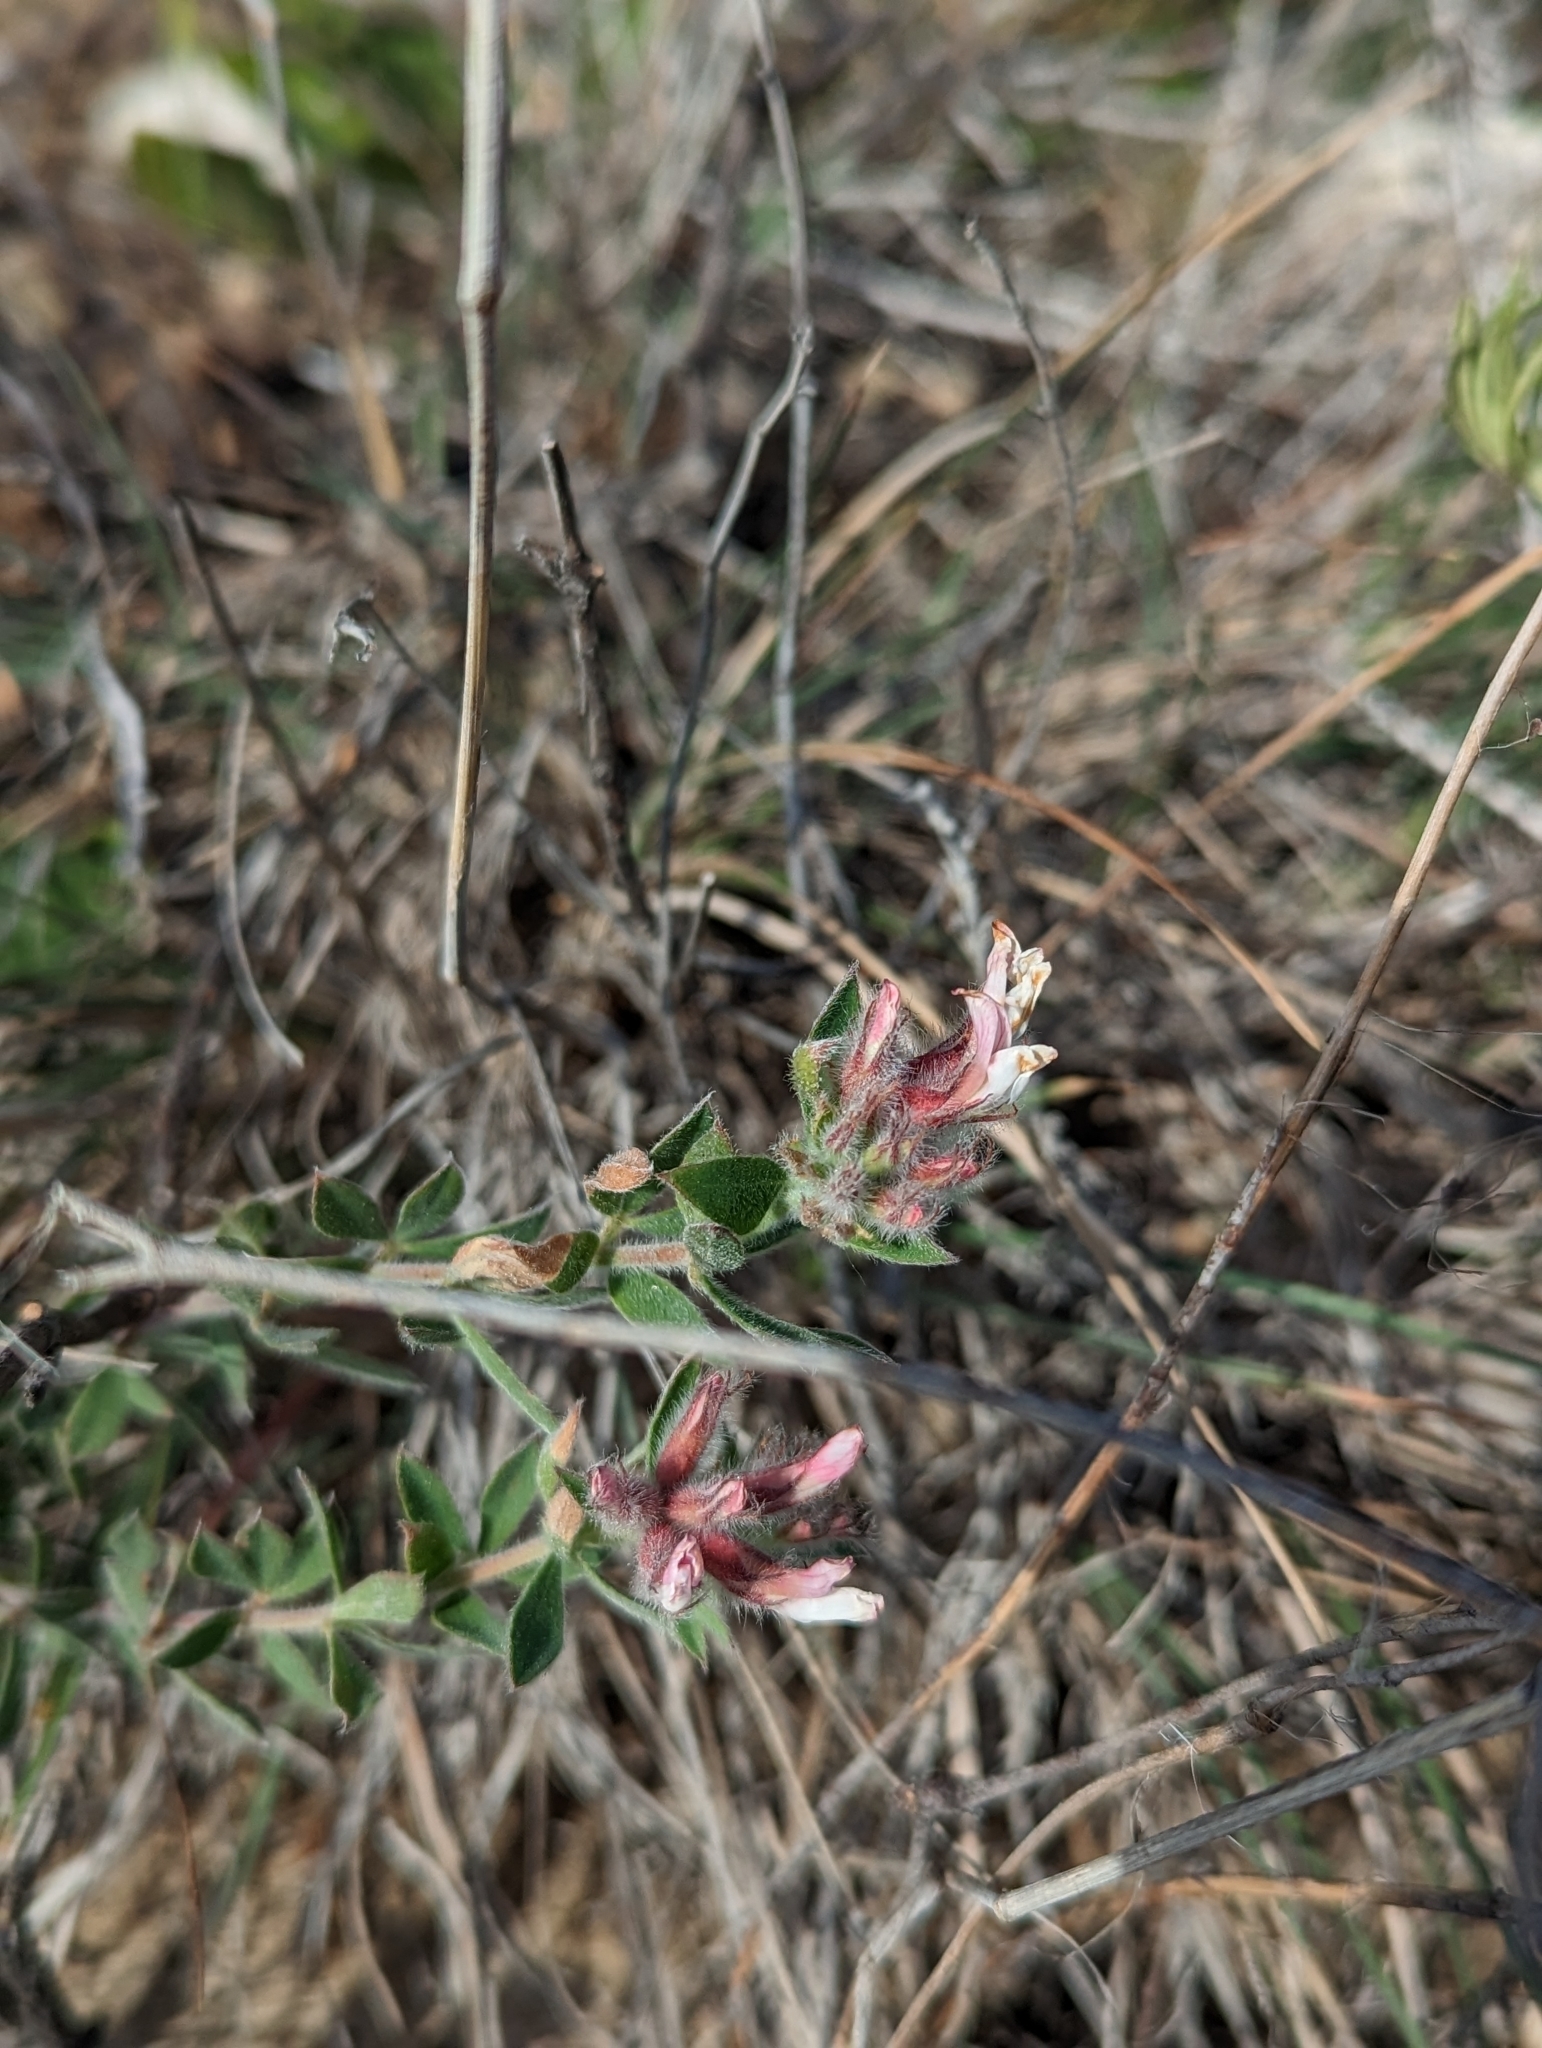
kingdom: Plantae
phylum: Tracheophyta
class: Magnoliopsida
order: Fabales
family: Fabaceae
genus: Lotus
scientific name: Lotus hirsutus
